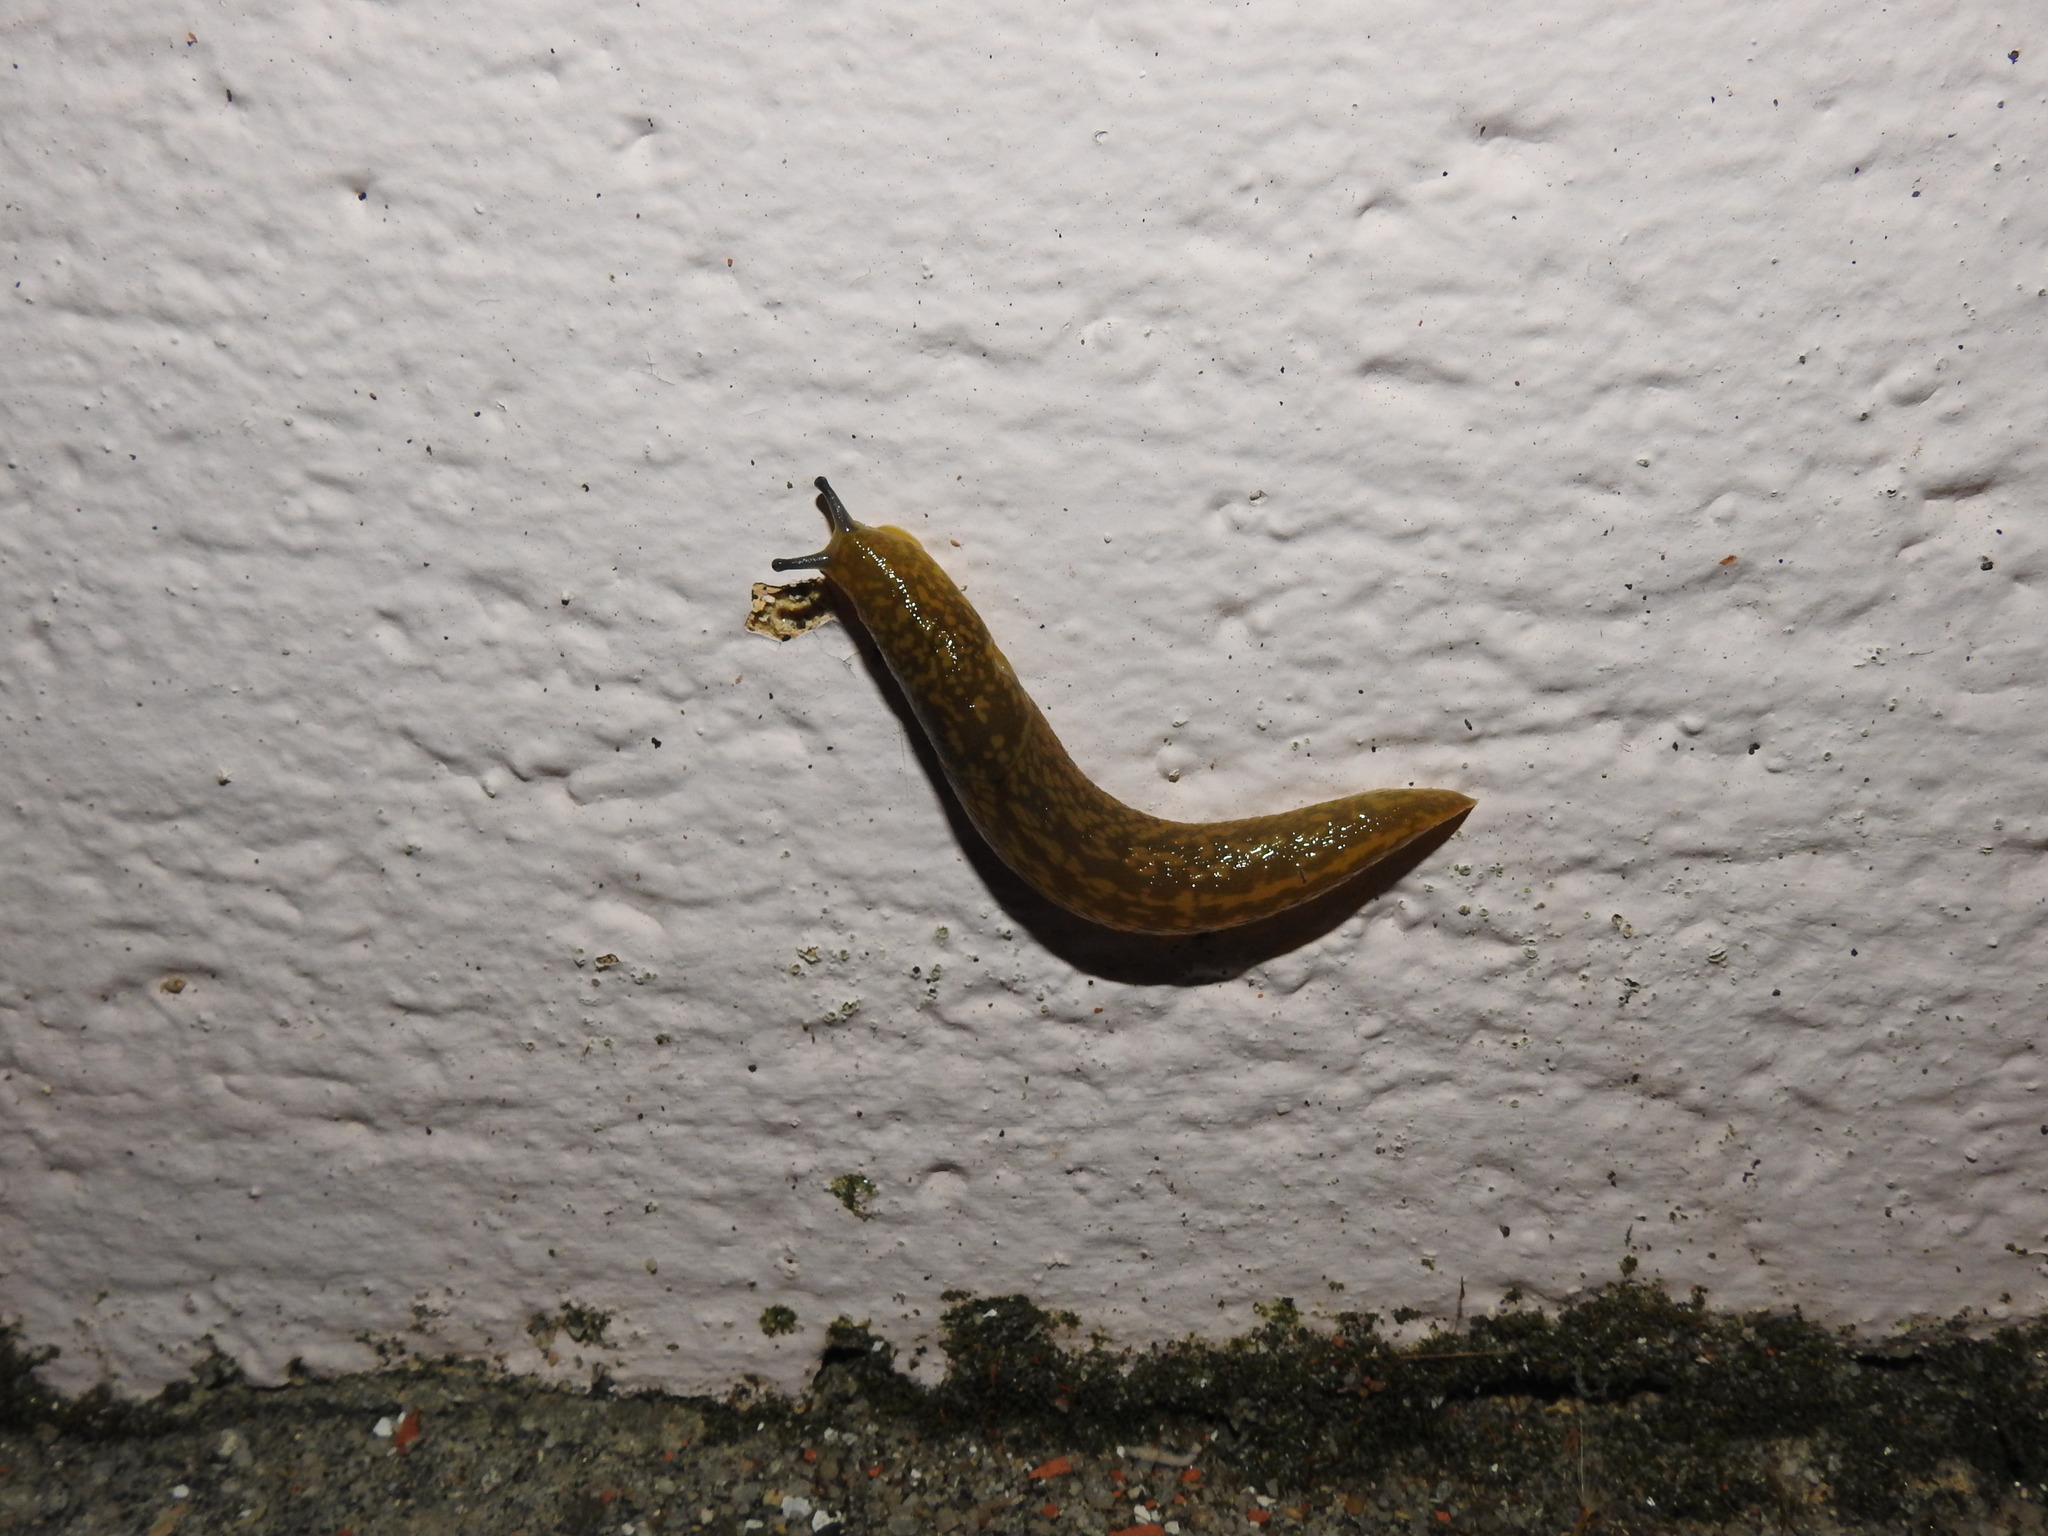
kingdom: Animalia
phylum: Mollusca
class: Gastropoda
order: Stylommatophora
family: Limacidae
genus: Limacus
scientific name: Limacus flavus
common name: Yellow gardenslug
